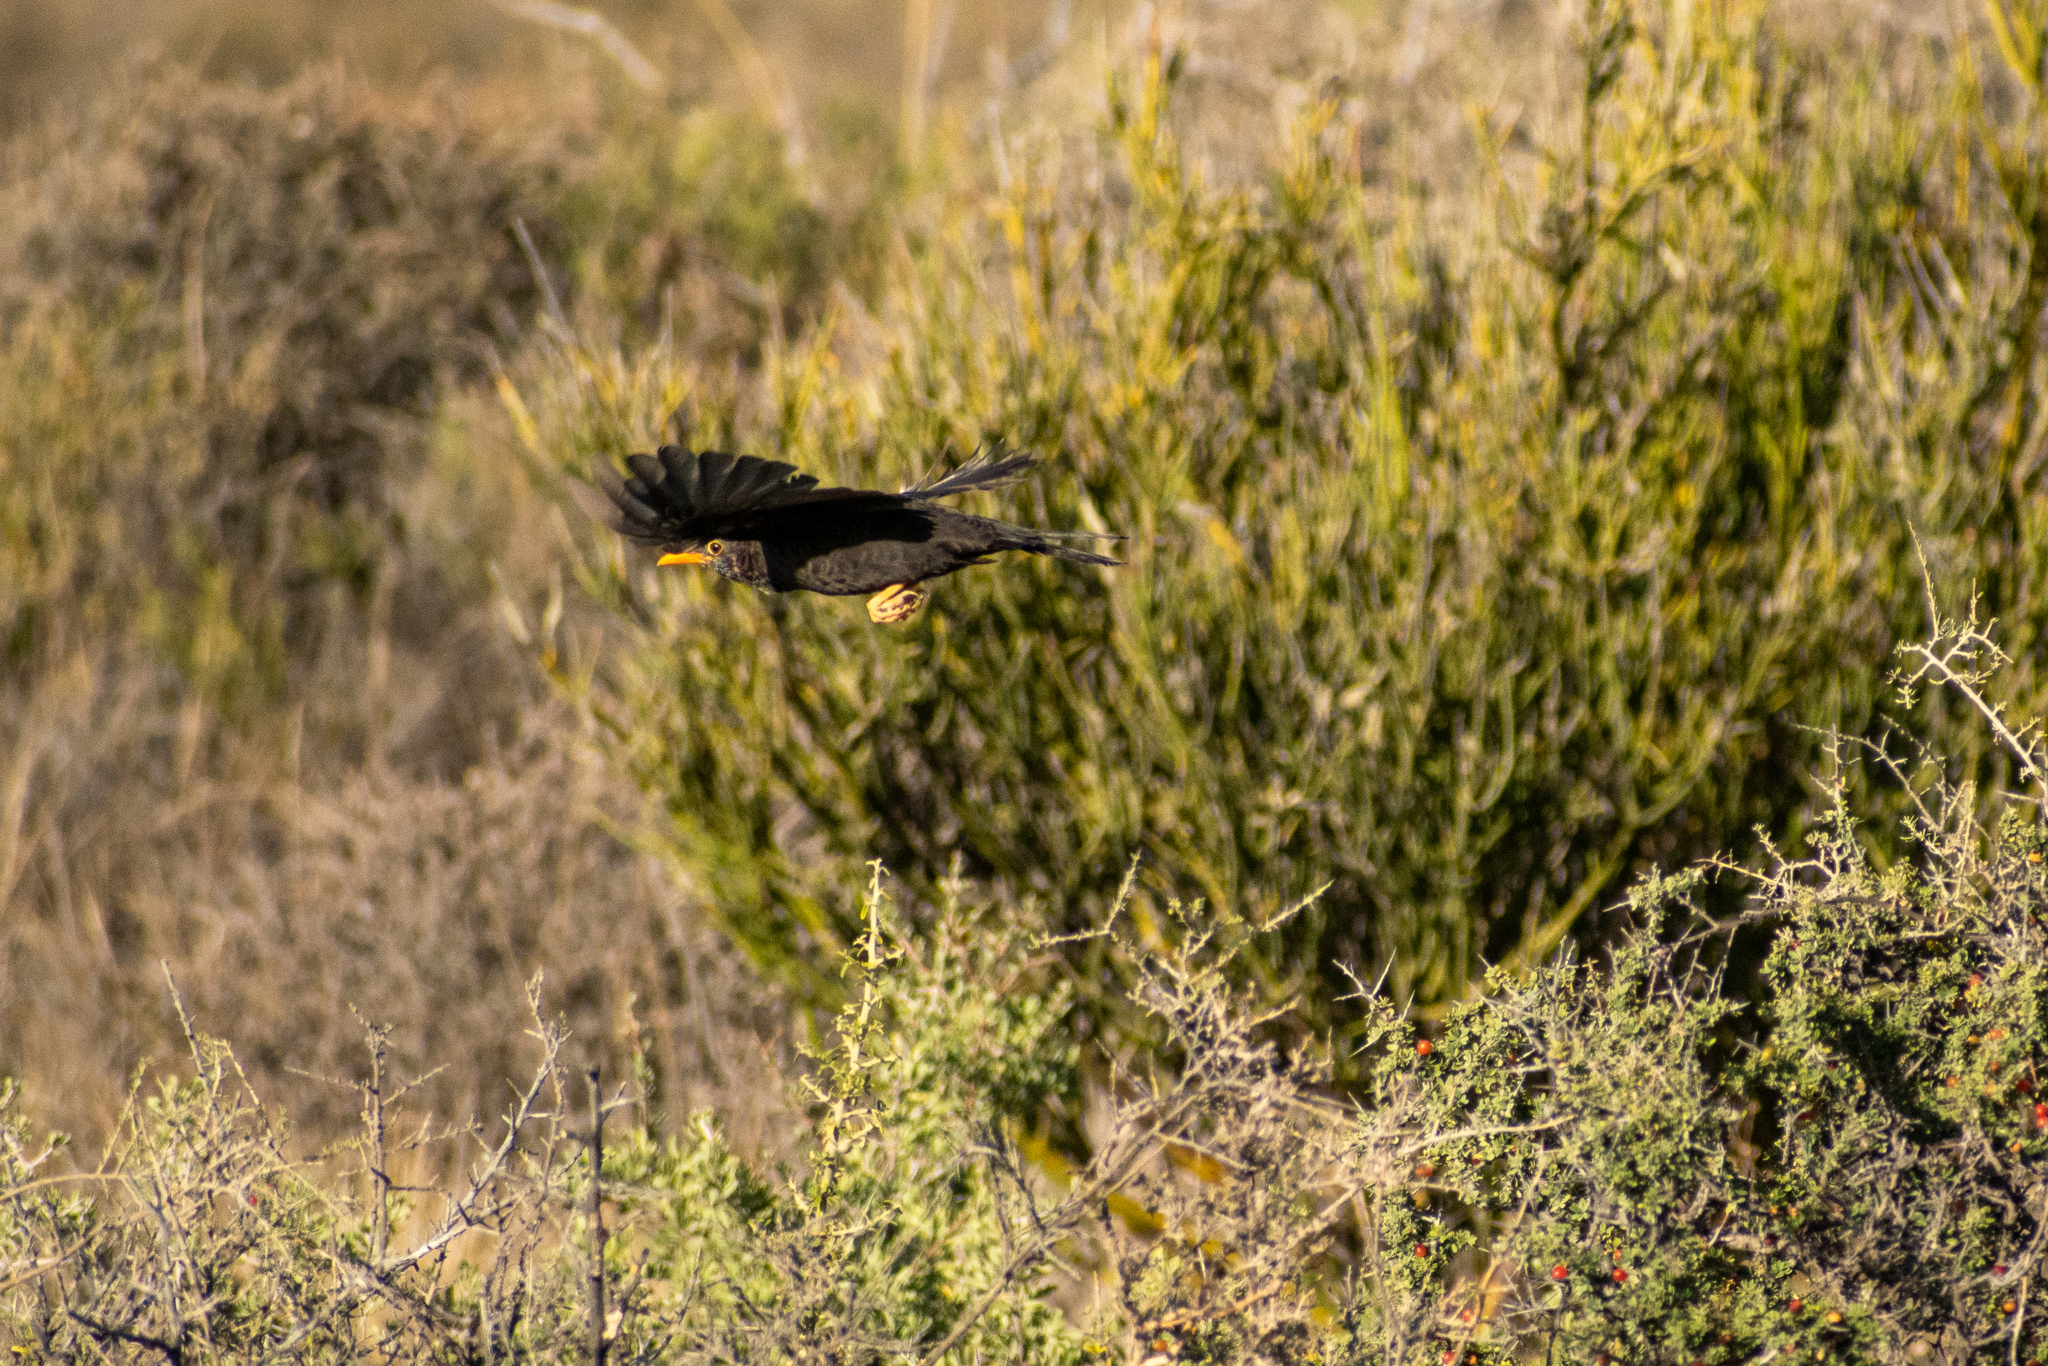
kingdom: Animalia
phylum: Chordata
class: Aves
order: Passeriformes
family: Turdidae
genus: Turdus
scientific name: Turdus chiguanco
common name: Chiguanco thrush
